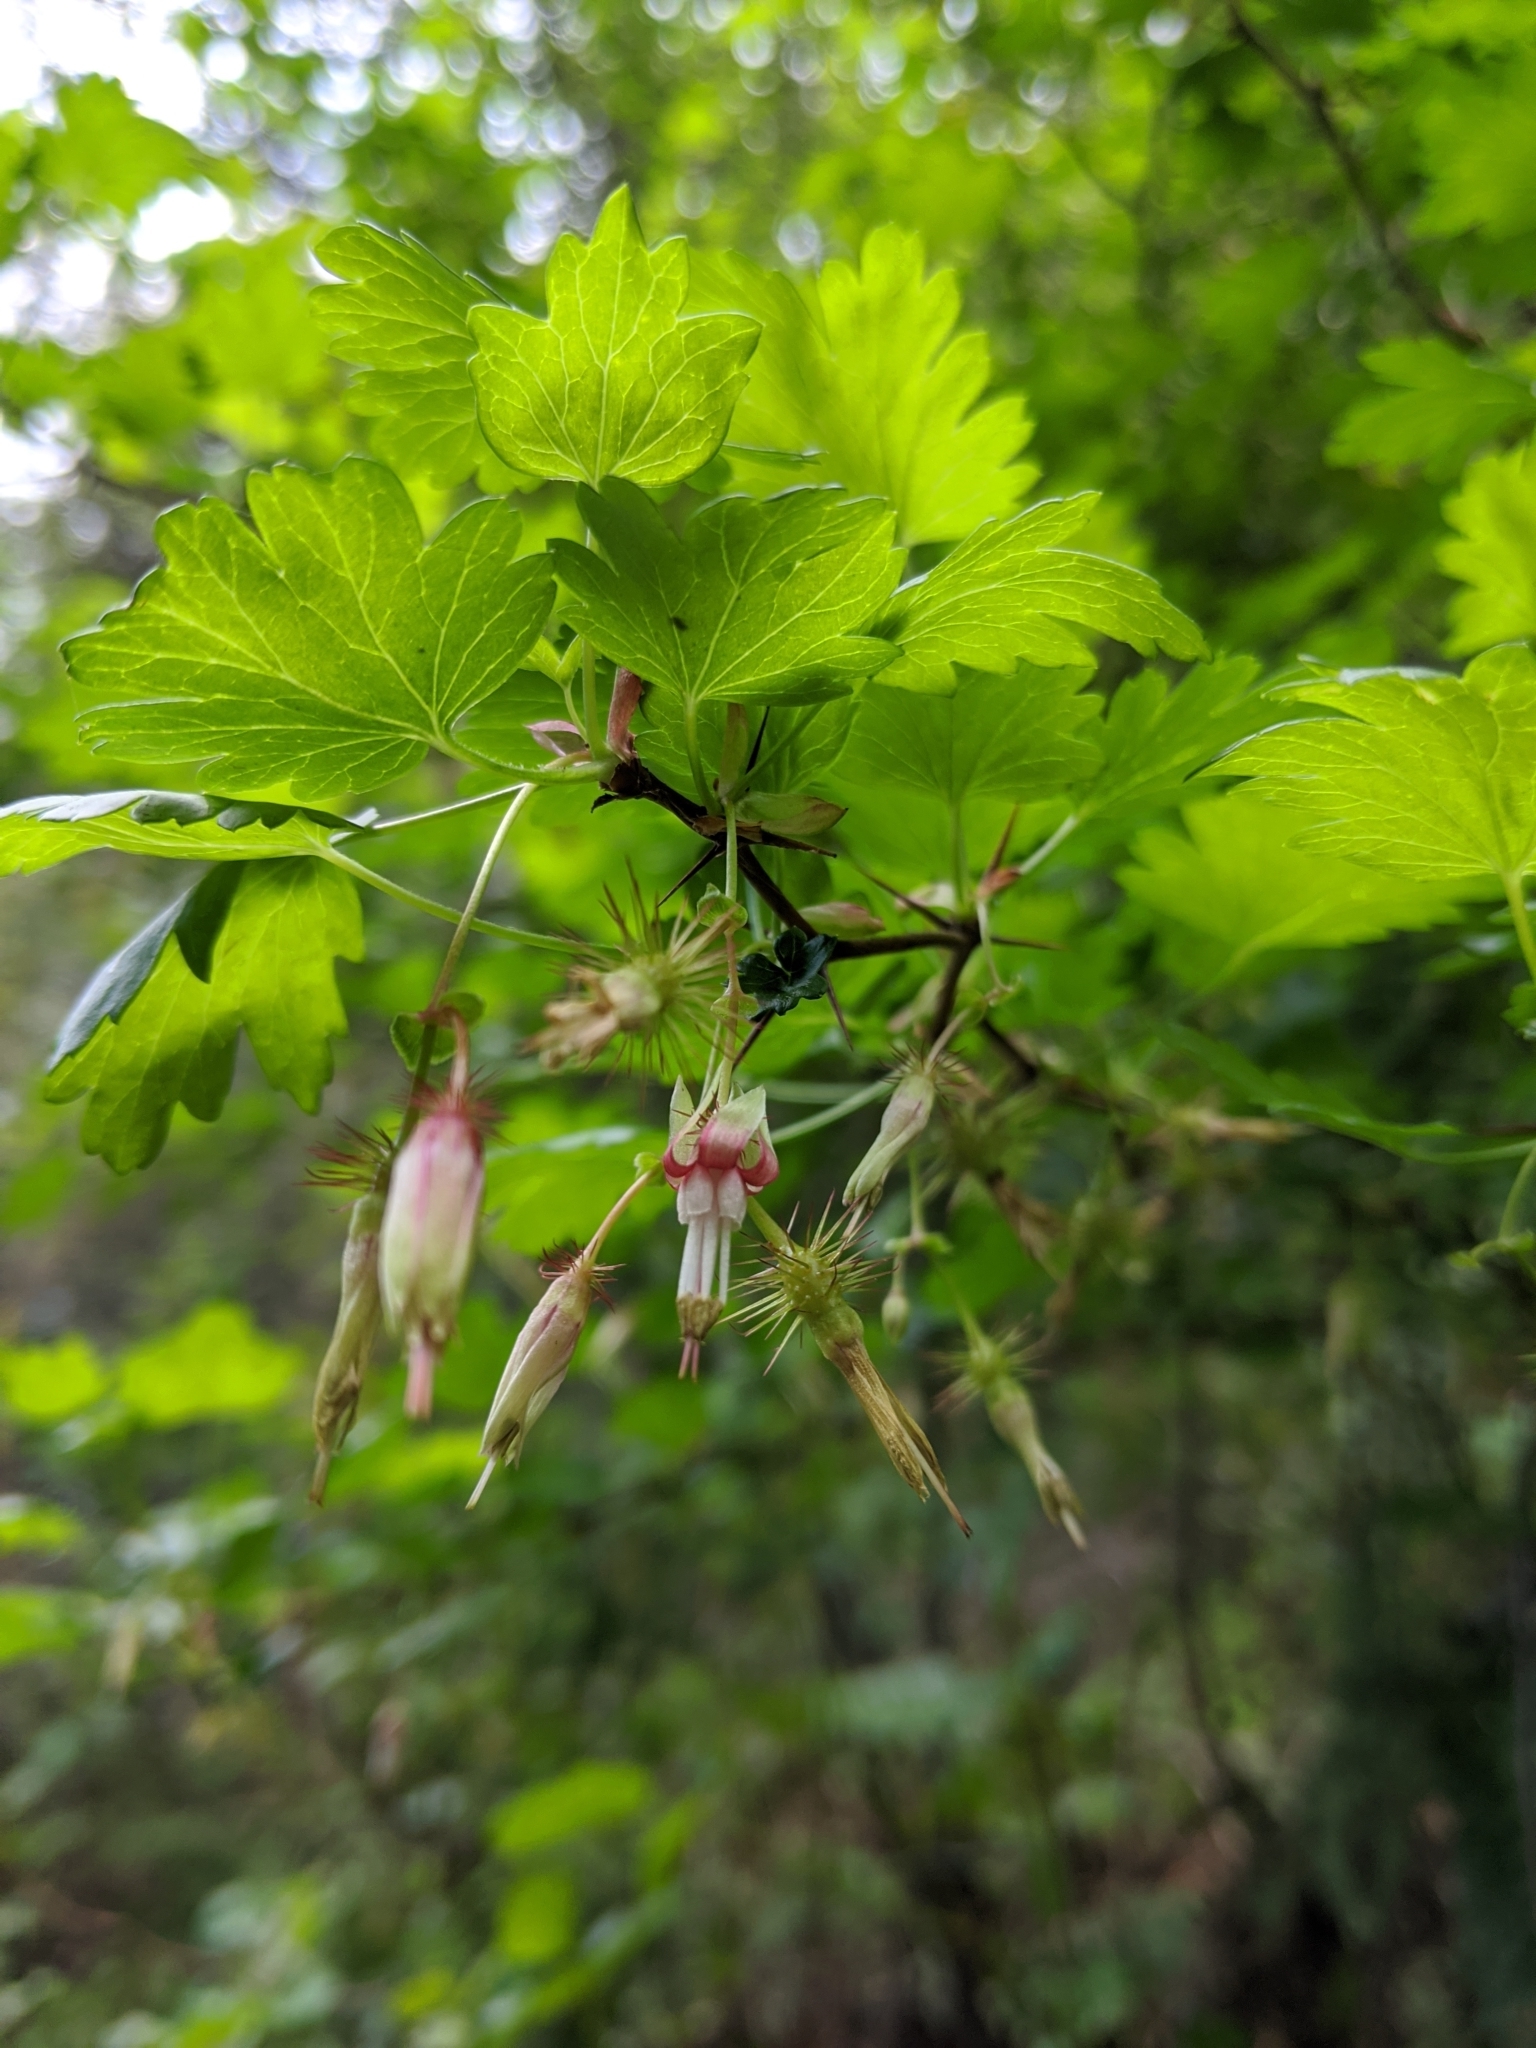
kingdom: Plantae
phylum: Tracheophyta
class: Magnoliopsida
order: Saxifragales
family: Grossulariaceae
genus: Ribes
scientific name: Ribes californicum
